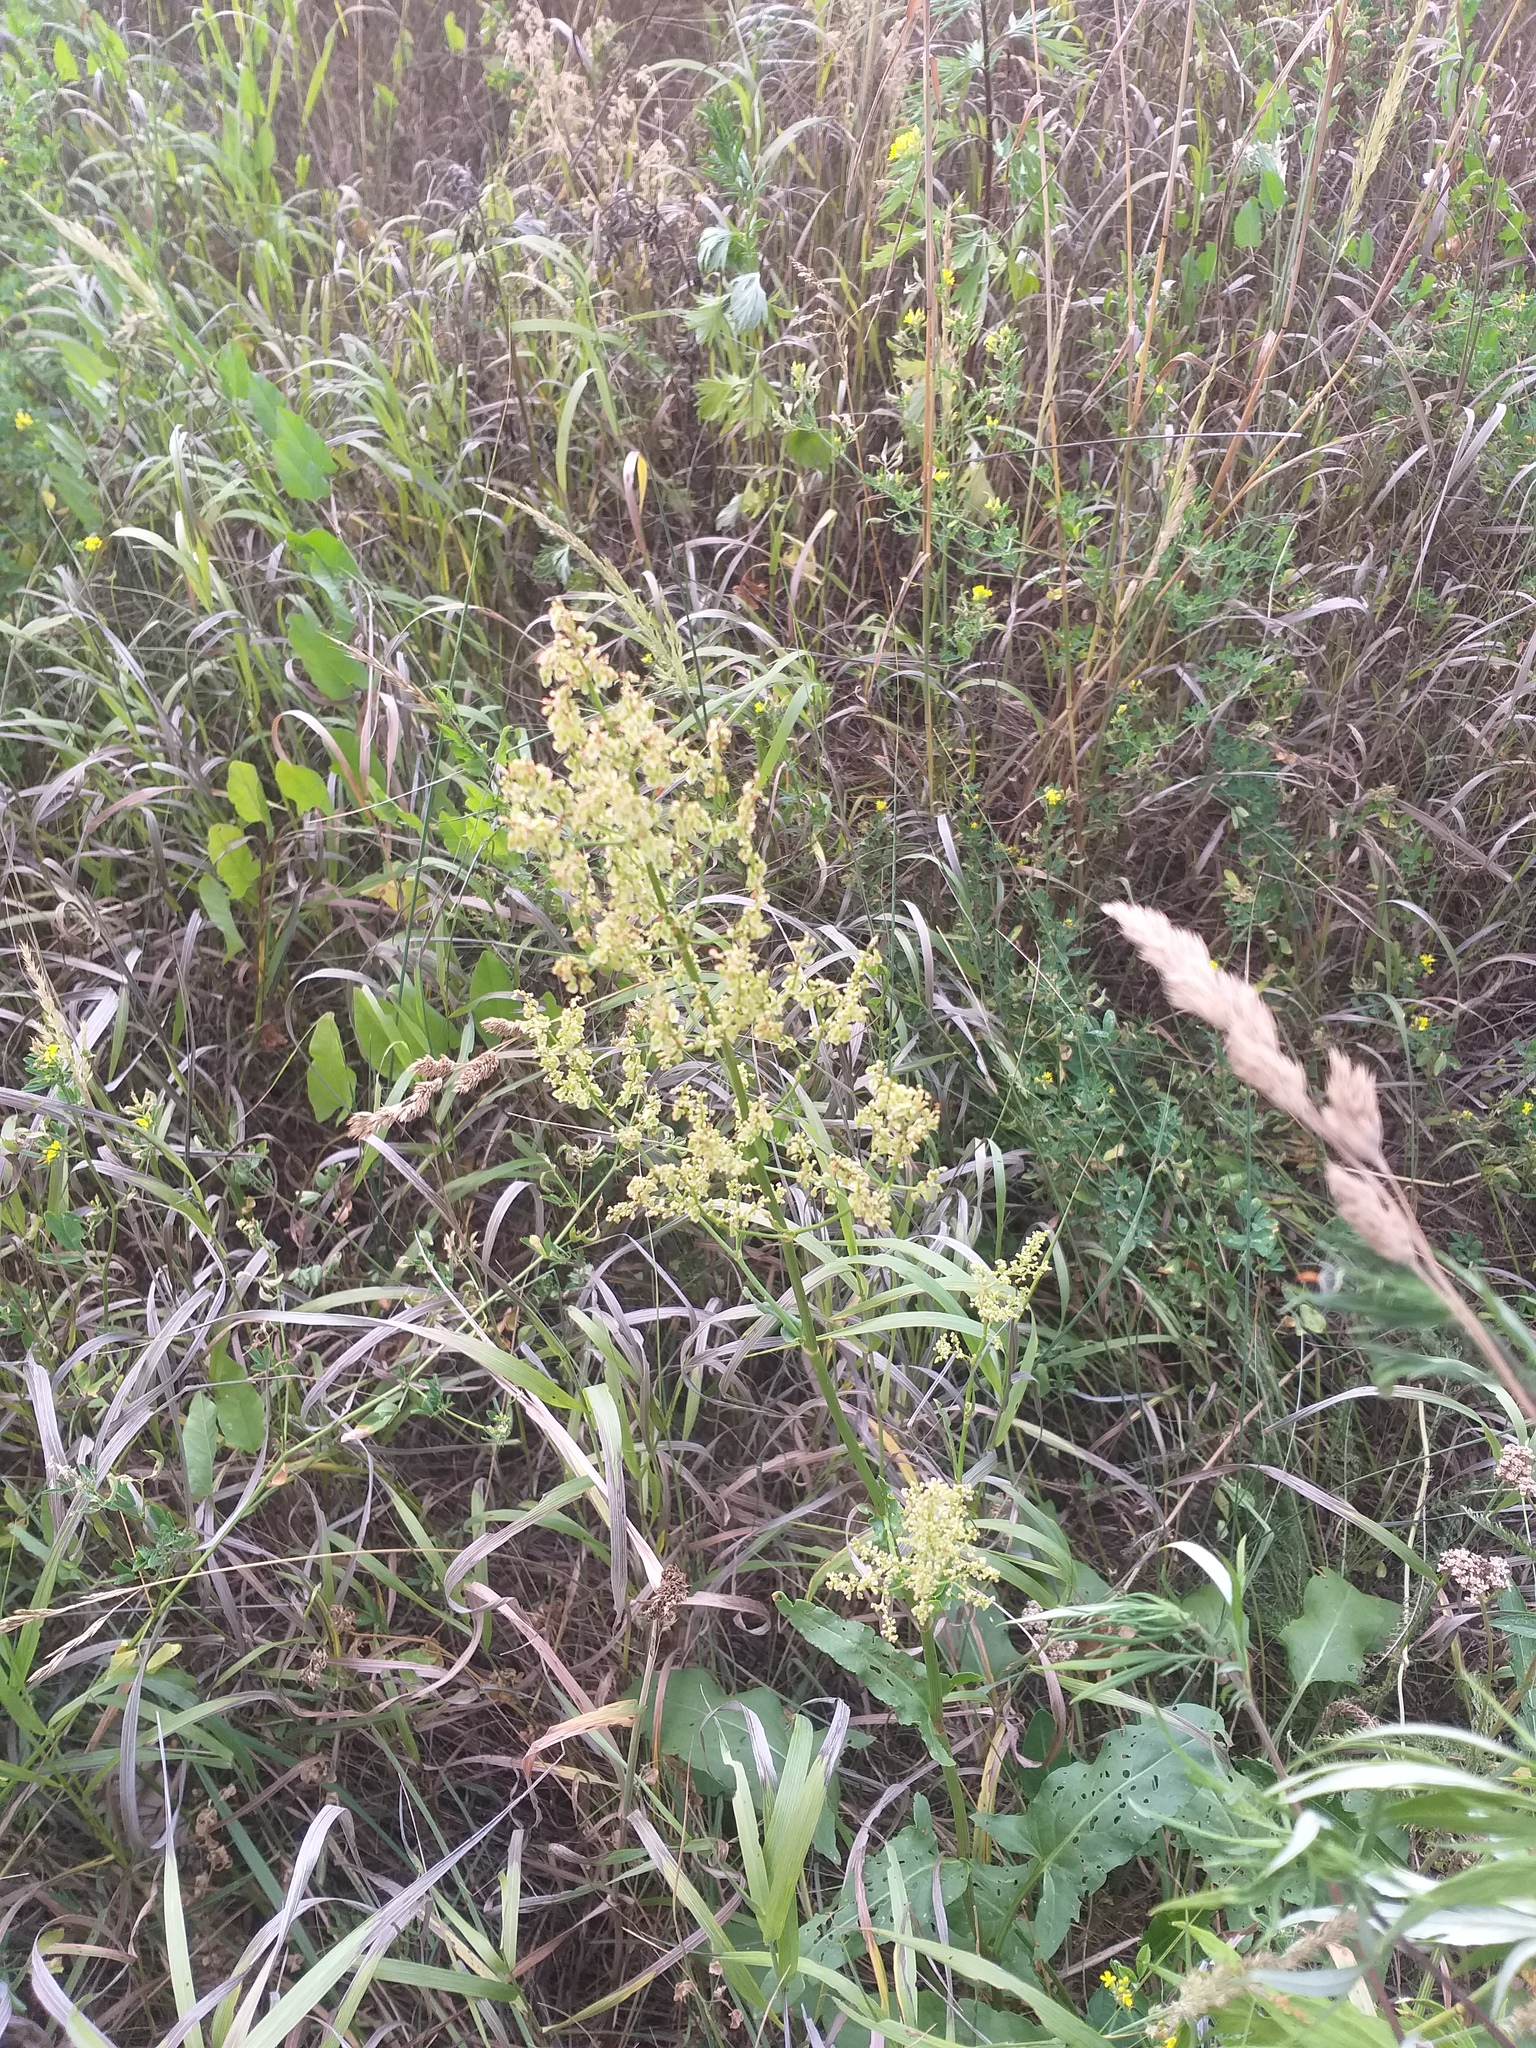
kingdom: Plantae
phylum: Tracheophyta
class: Magnoliopsida
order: Caryophyllales
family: Polygonaceae
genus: Rumex
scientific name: Rumex thyrsiflorus
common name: Garden sorrel
